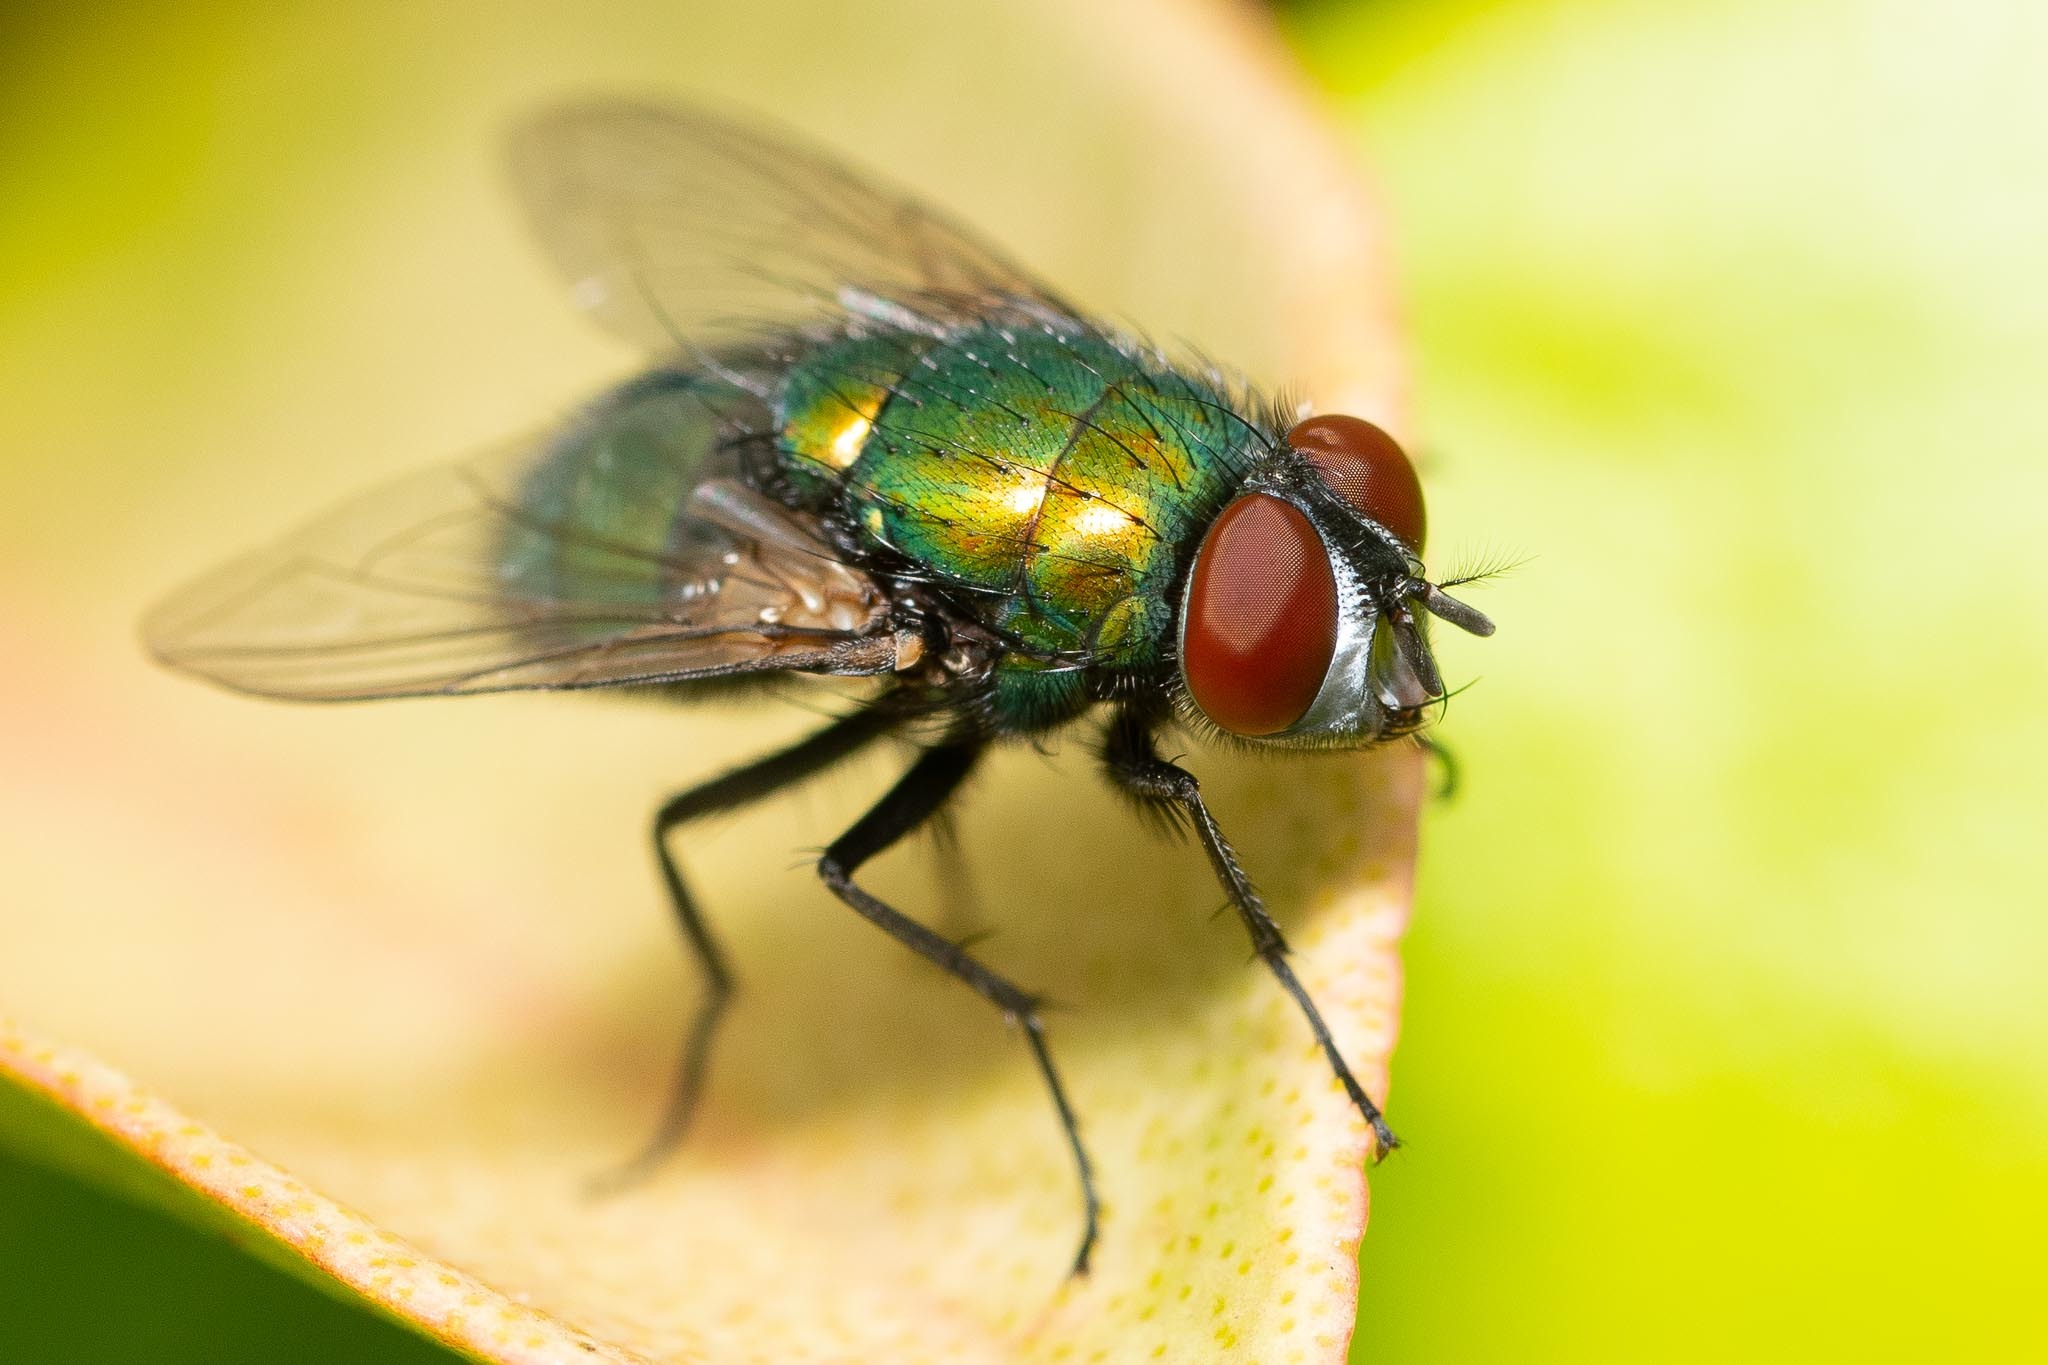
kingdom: Animalia
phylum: Arthropoda
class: Insecta
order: Diptera
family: Calliphoridae
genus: Lucilia
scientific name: Lucilia sericata
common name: Blow fly
